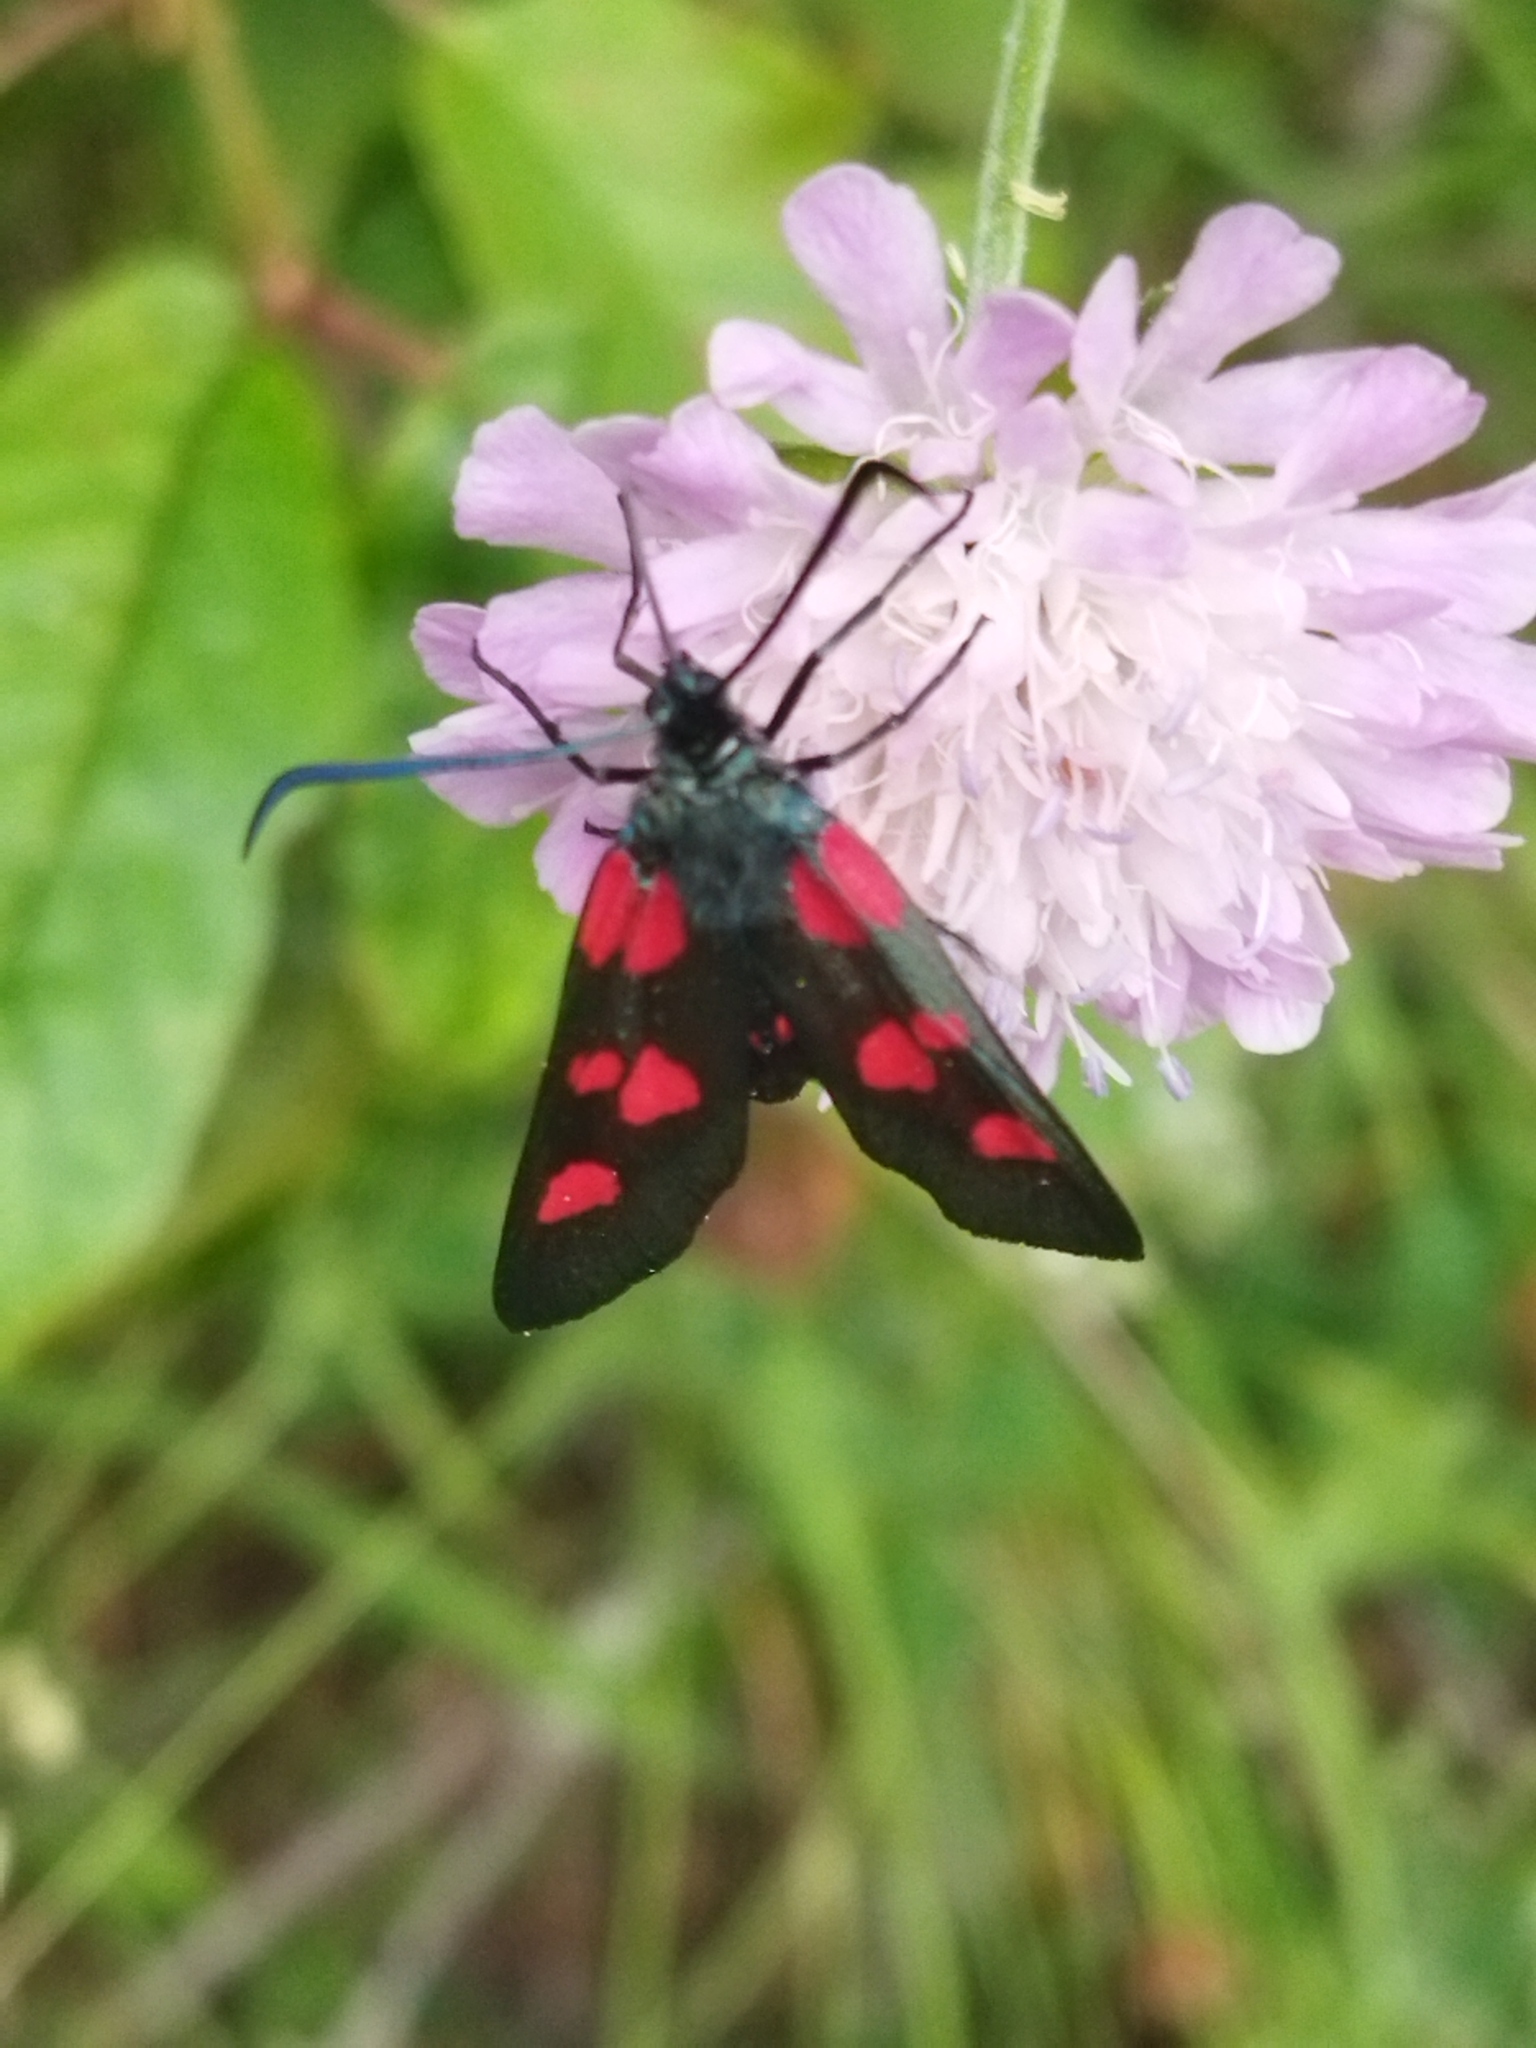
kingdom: Animalia
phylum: Arthropoda
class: Insecta
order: Lepidoptera
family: Zygaenidae
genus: Zygaena
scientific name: Zygaena lonicerae
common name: Narrow-bordered five-spot burnet
